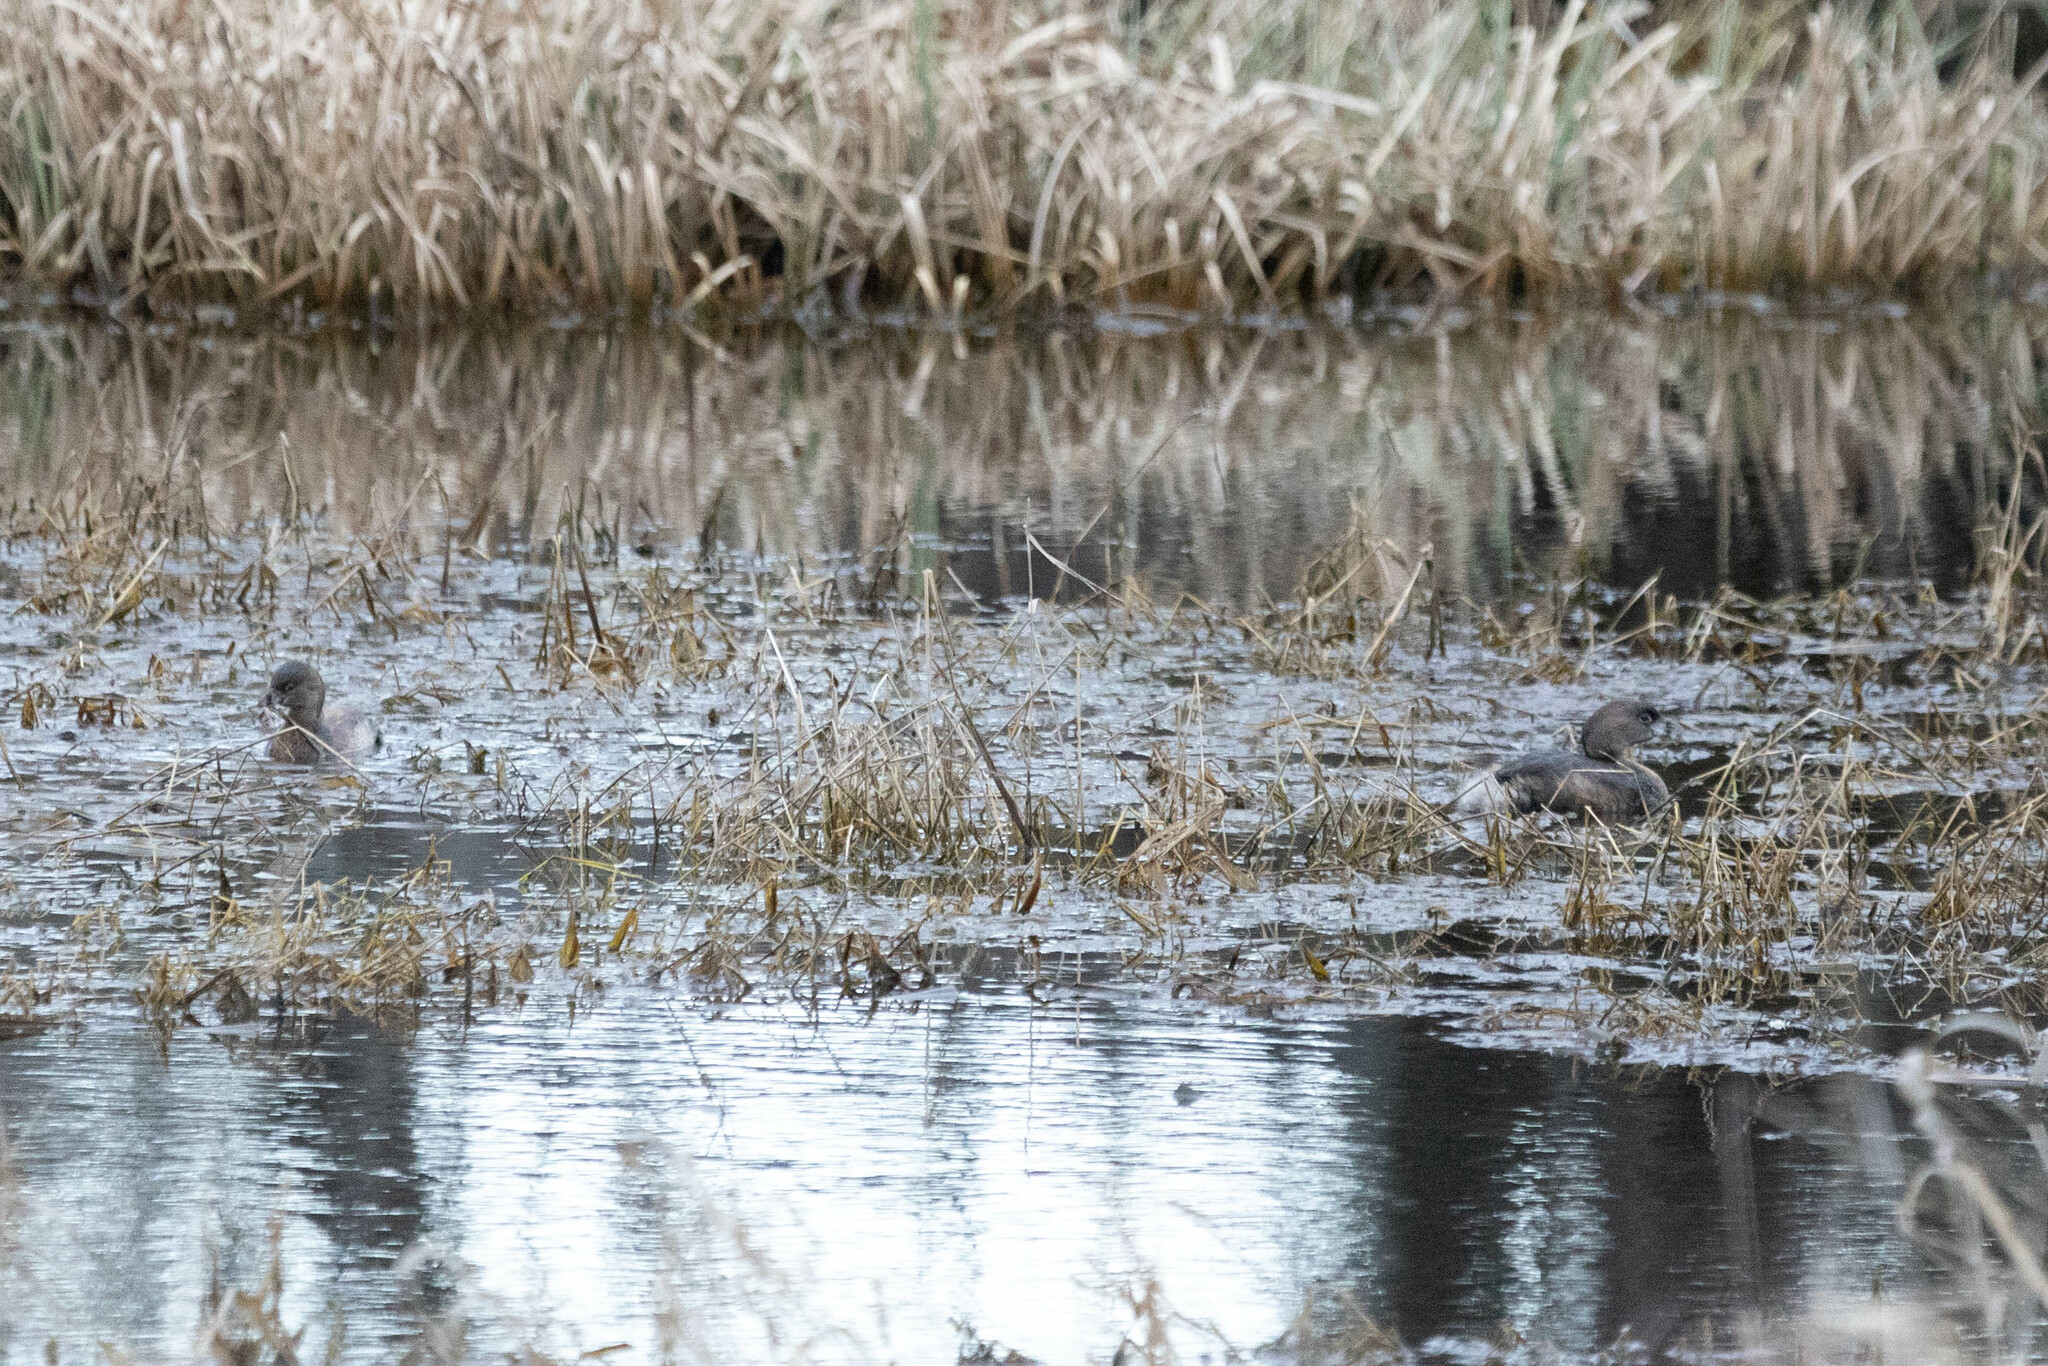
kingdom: Animalia
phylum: Chordata
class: Aves
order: Podicipediformes
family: Podicipedidae
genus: Podilymbus
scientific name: Podilymbus podiceps
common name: Pied-billed grebe
